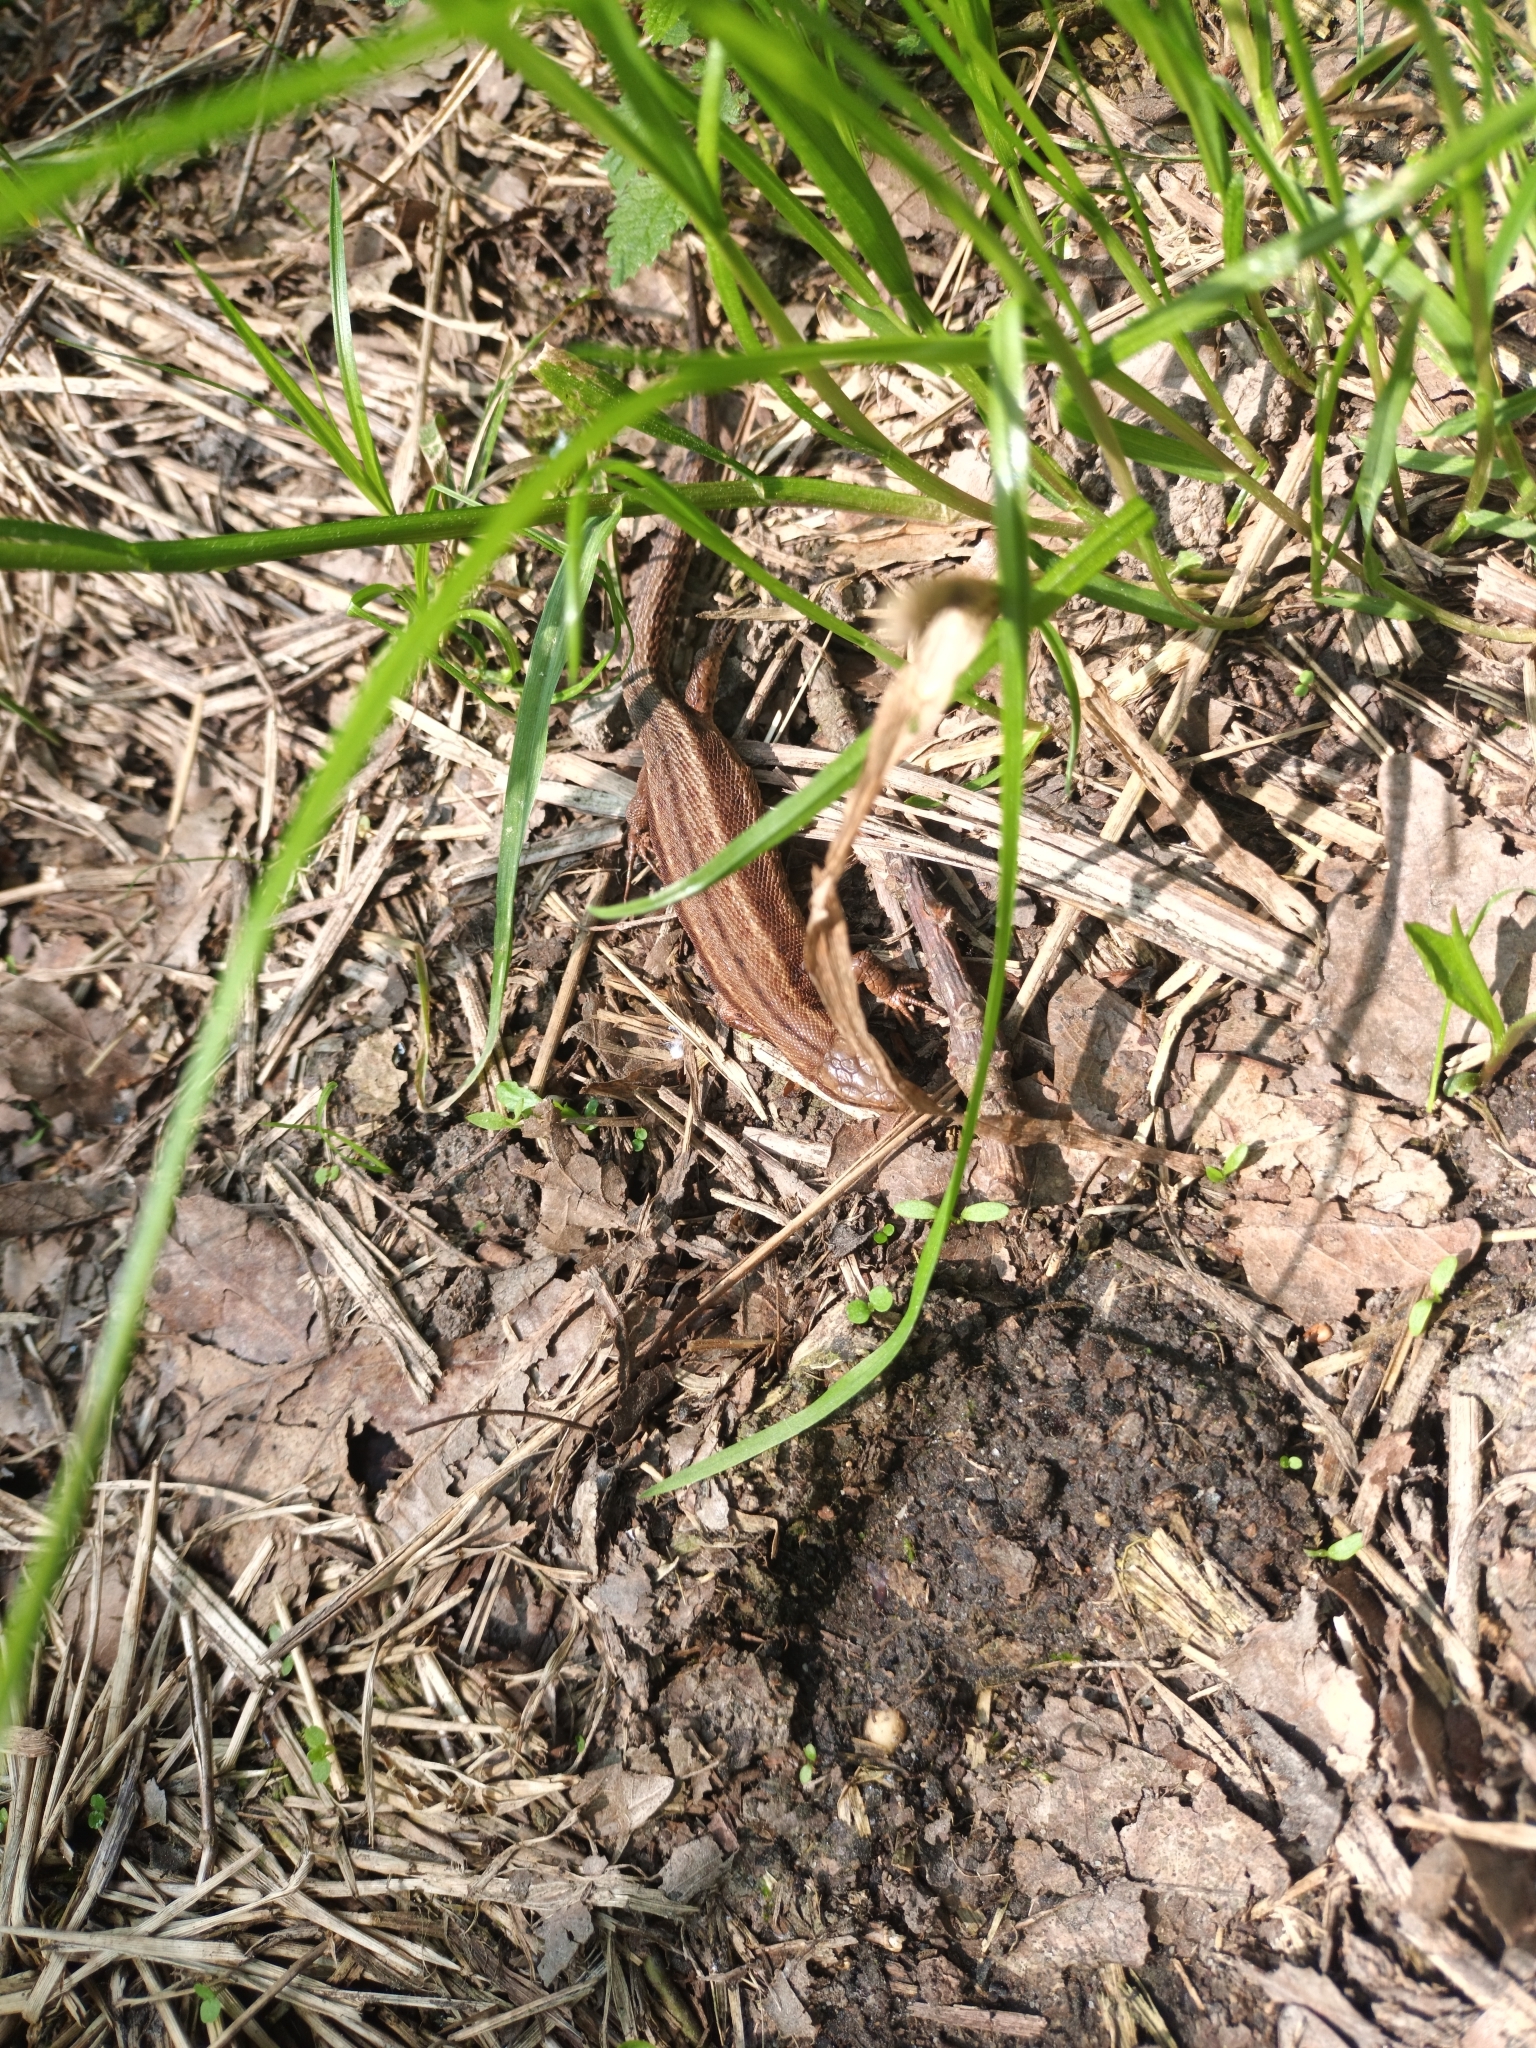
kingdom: Animalia
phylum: Chordata
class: Squamata
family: Lacertidae
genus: Zootoca
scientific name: Zootoca vivipara
